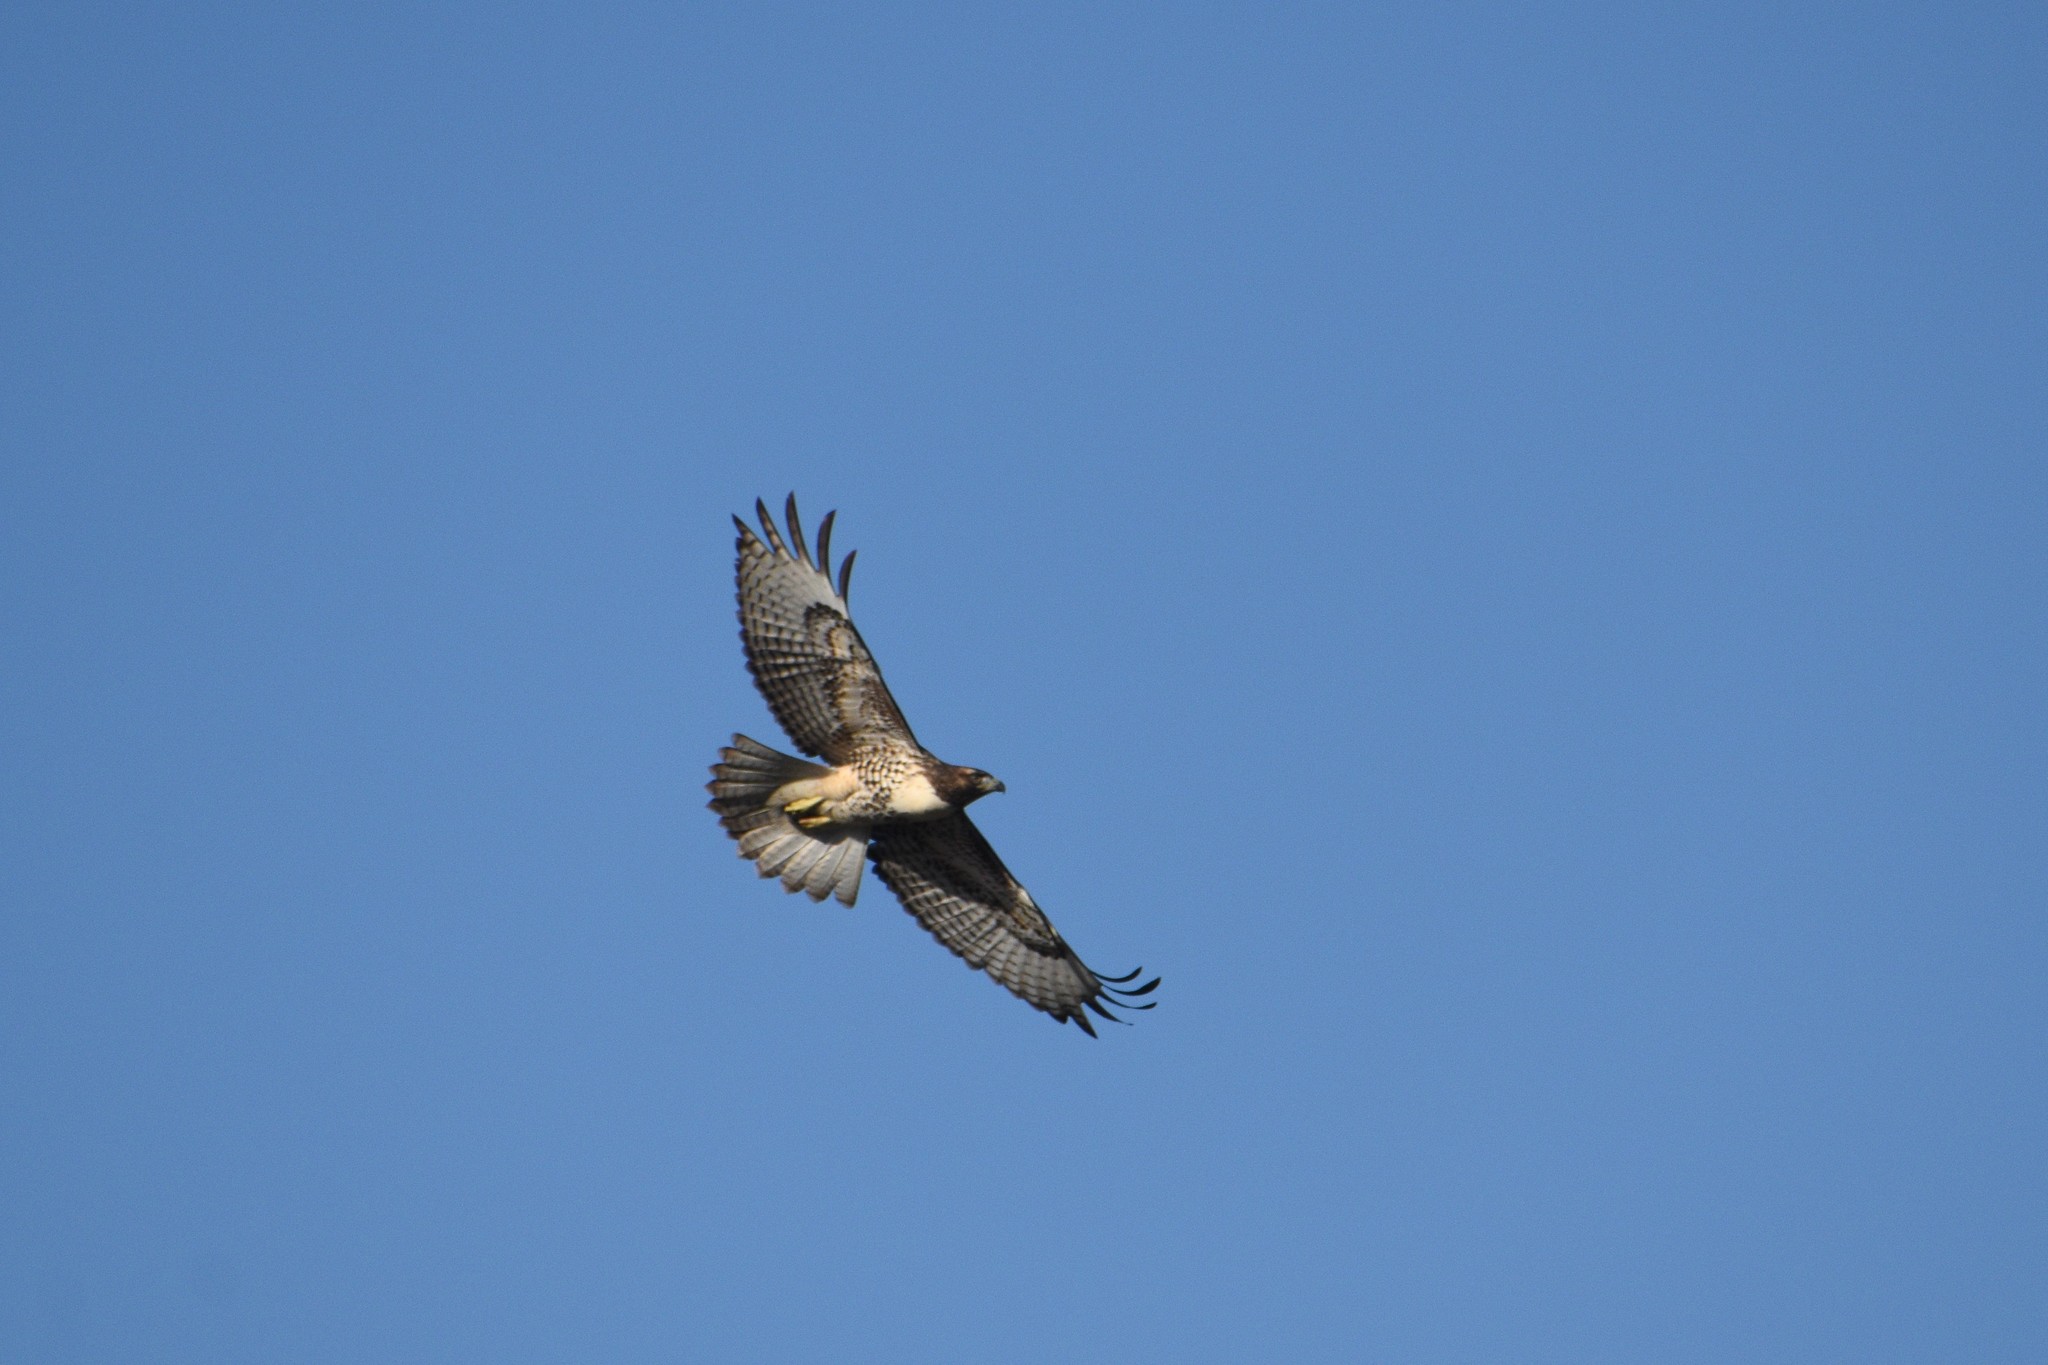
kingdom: Animalia
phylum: Chordata
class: Aves
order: Accipitriformes
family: Accipitridae
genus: Buteo
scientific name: Buteo jamaicensis
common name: Red-tailed hawk
